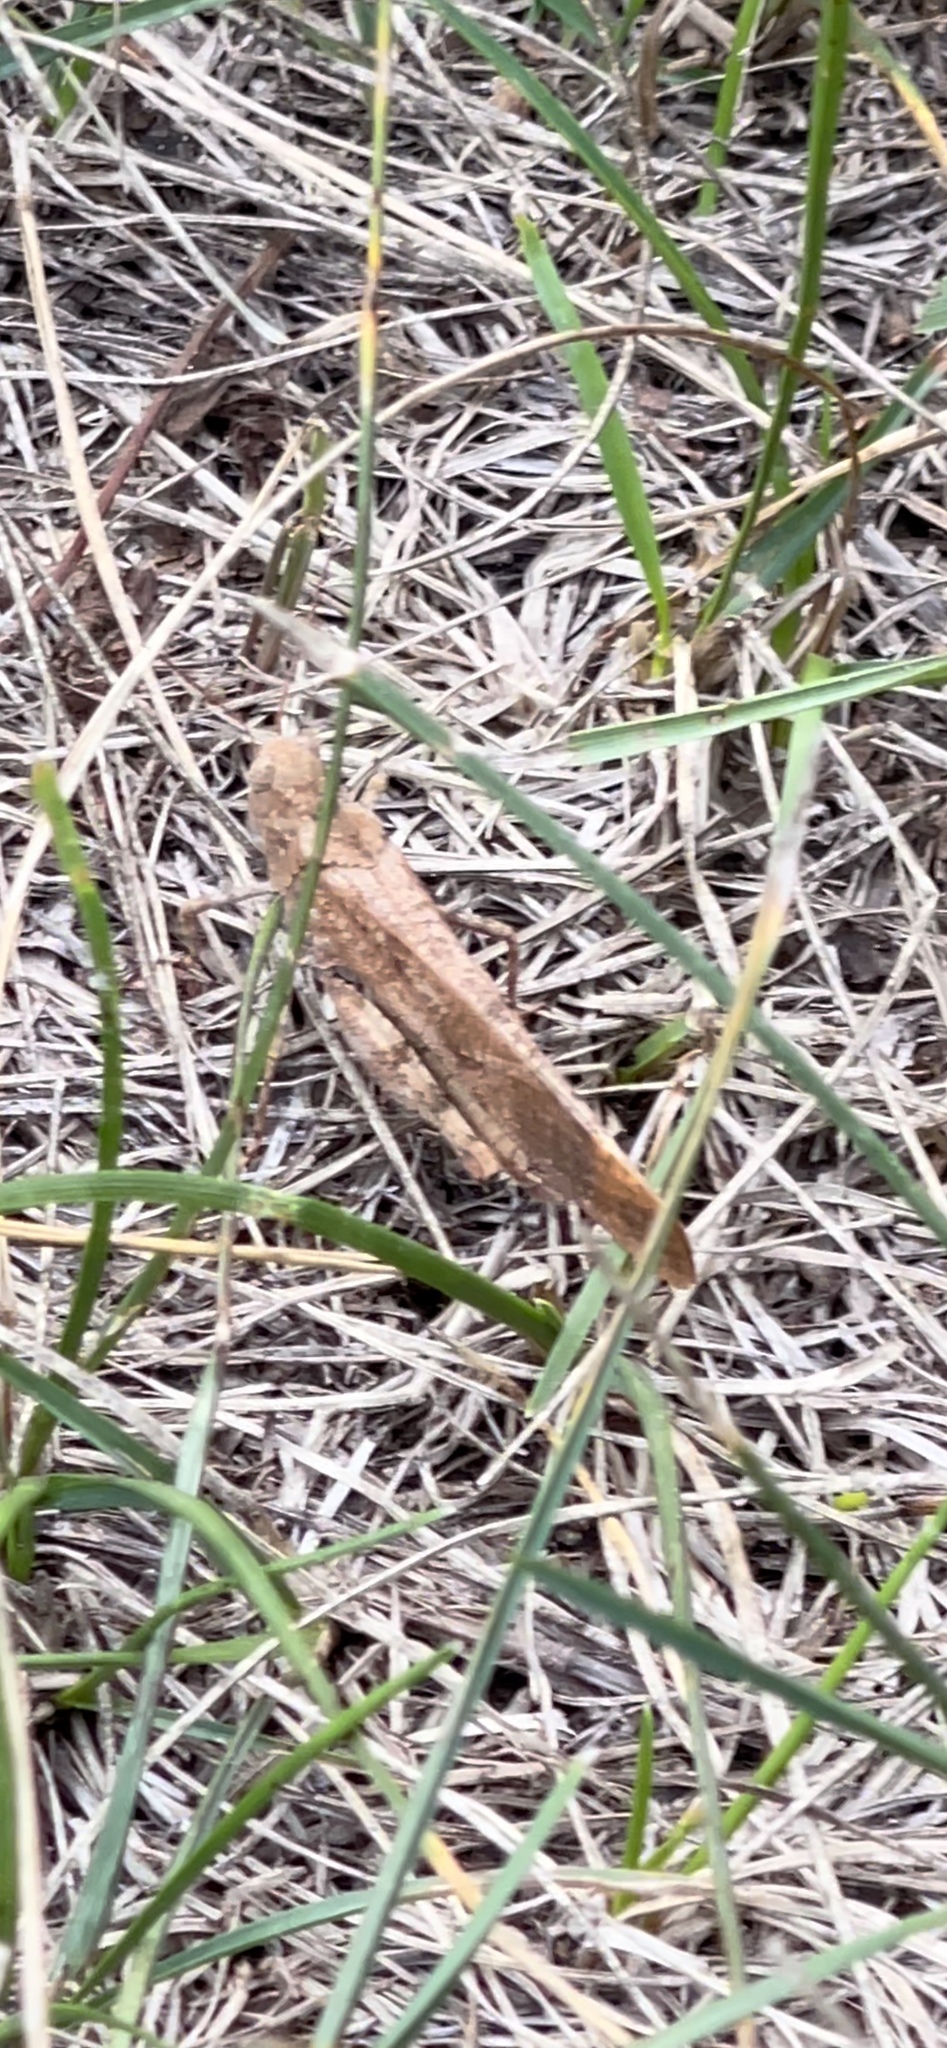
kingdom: Animalia
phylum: Arthropoda
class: Insecta
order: Orthoptera
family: Acrididae
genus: Dissosteira
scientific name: Dissosteira carolina
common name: Carolina grasshopper
